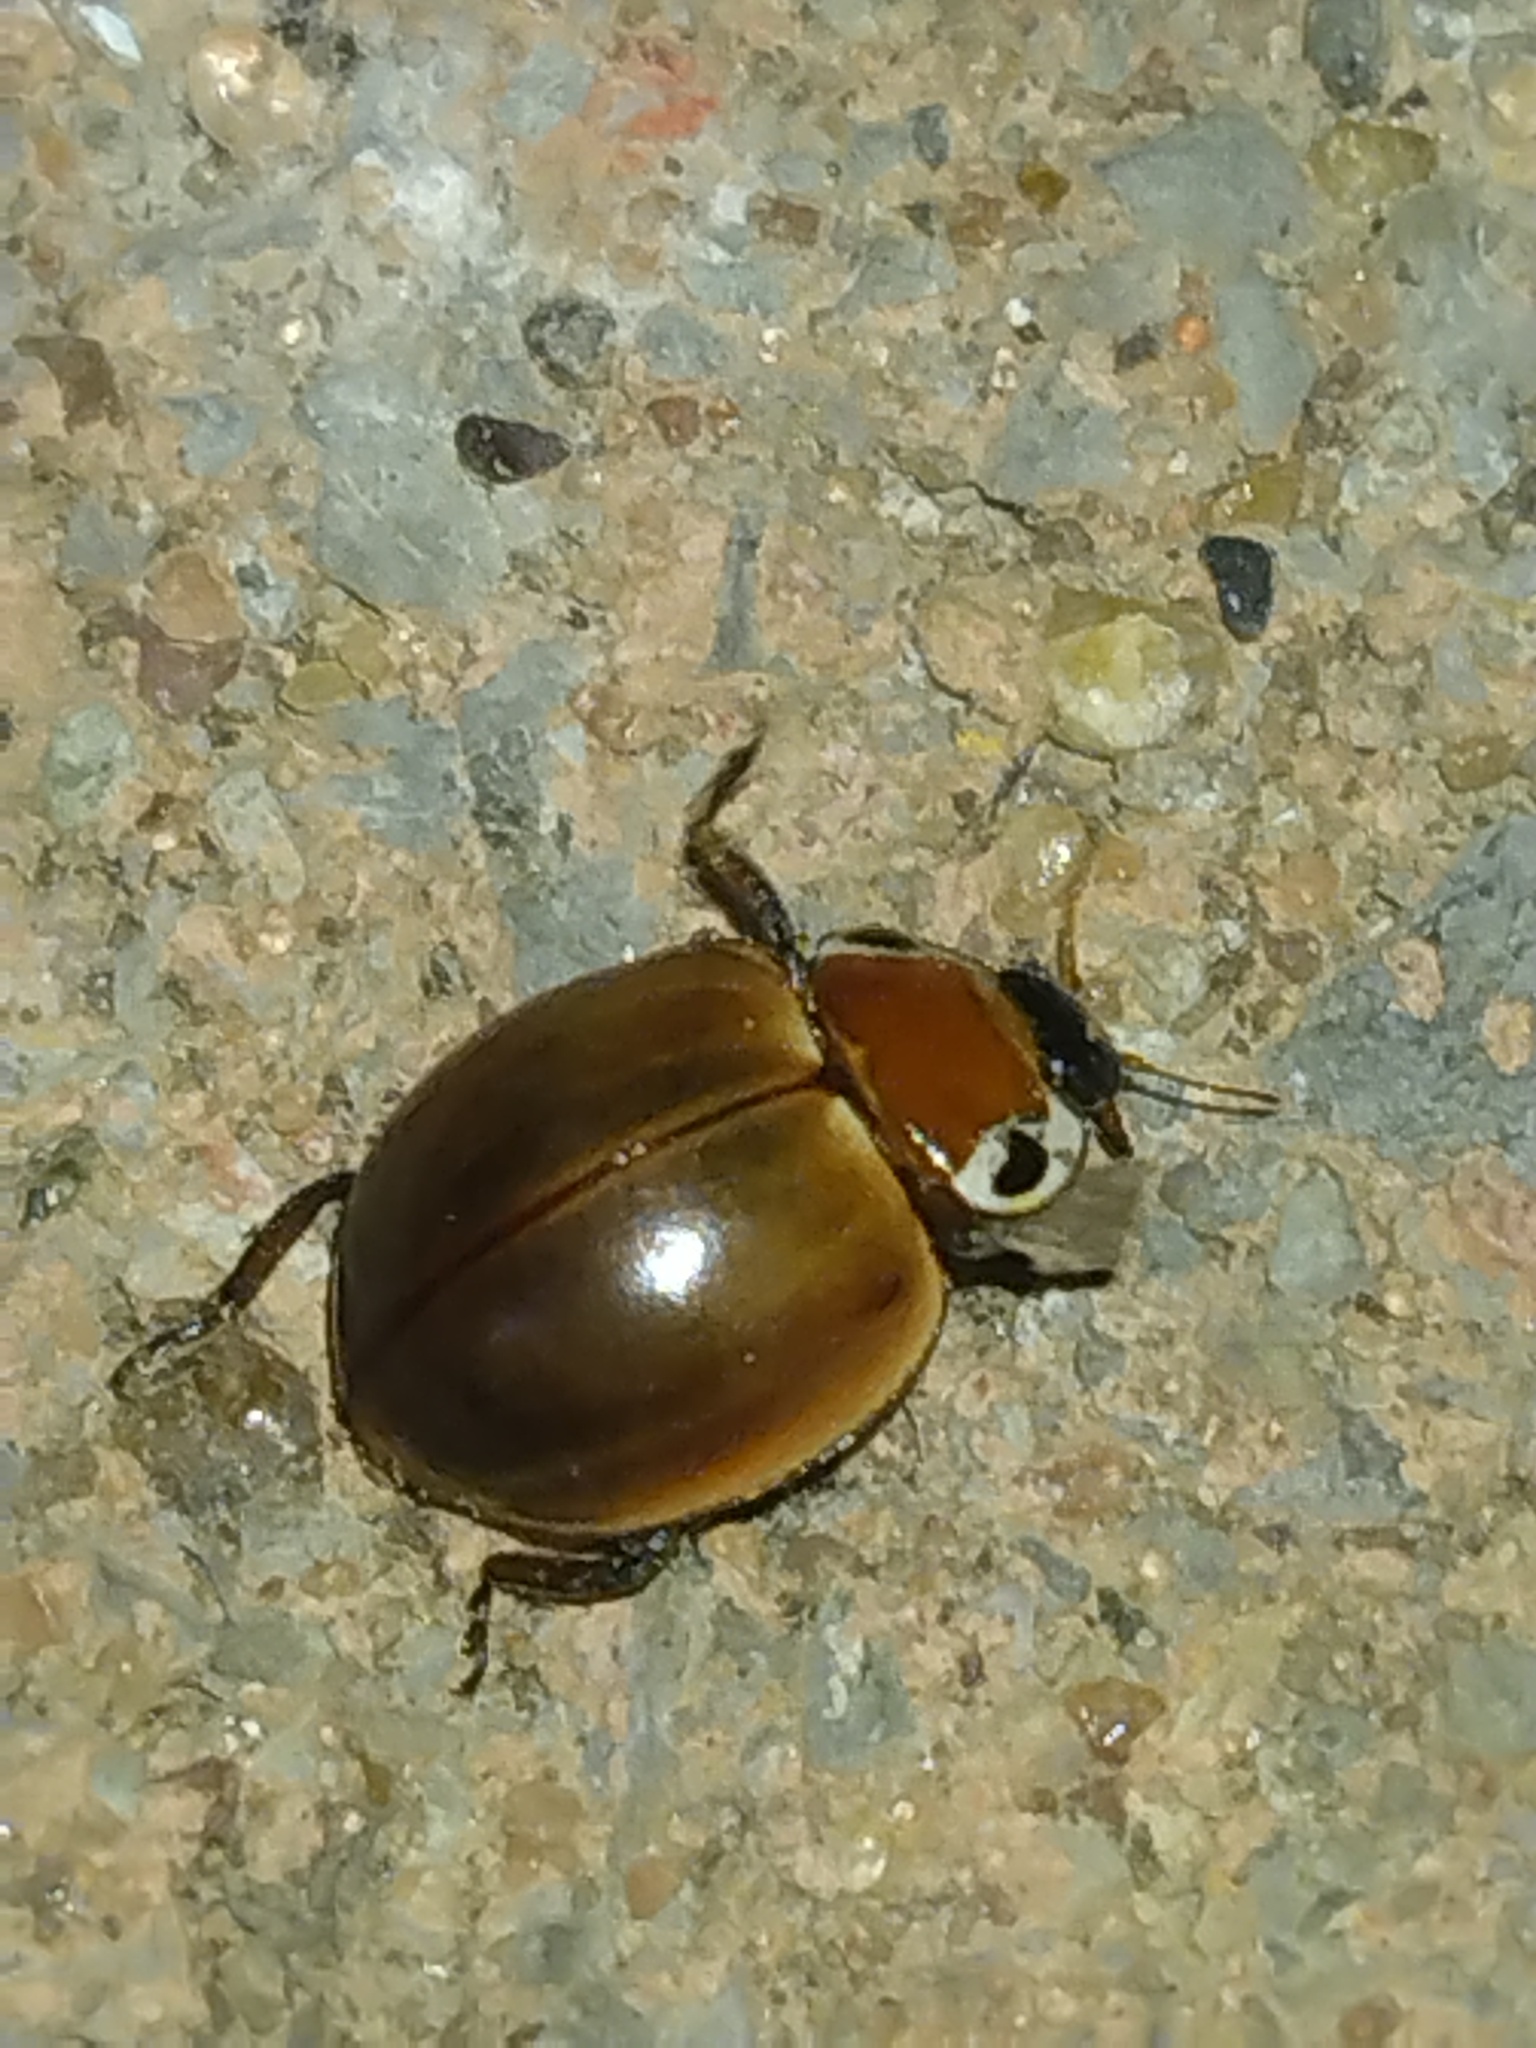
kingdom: Animalia
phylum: Arthropoda
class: Insecta
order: Coleoptera
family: Coccinellidae
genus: Myzia
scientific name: Myzia pullata
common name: Streaked lady beetle
